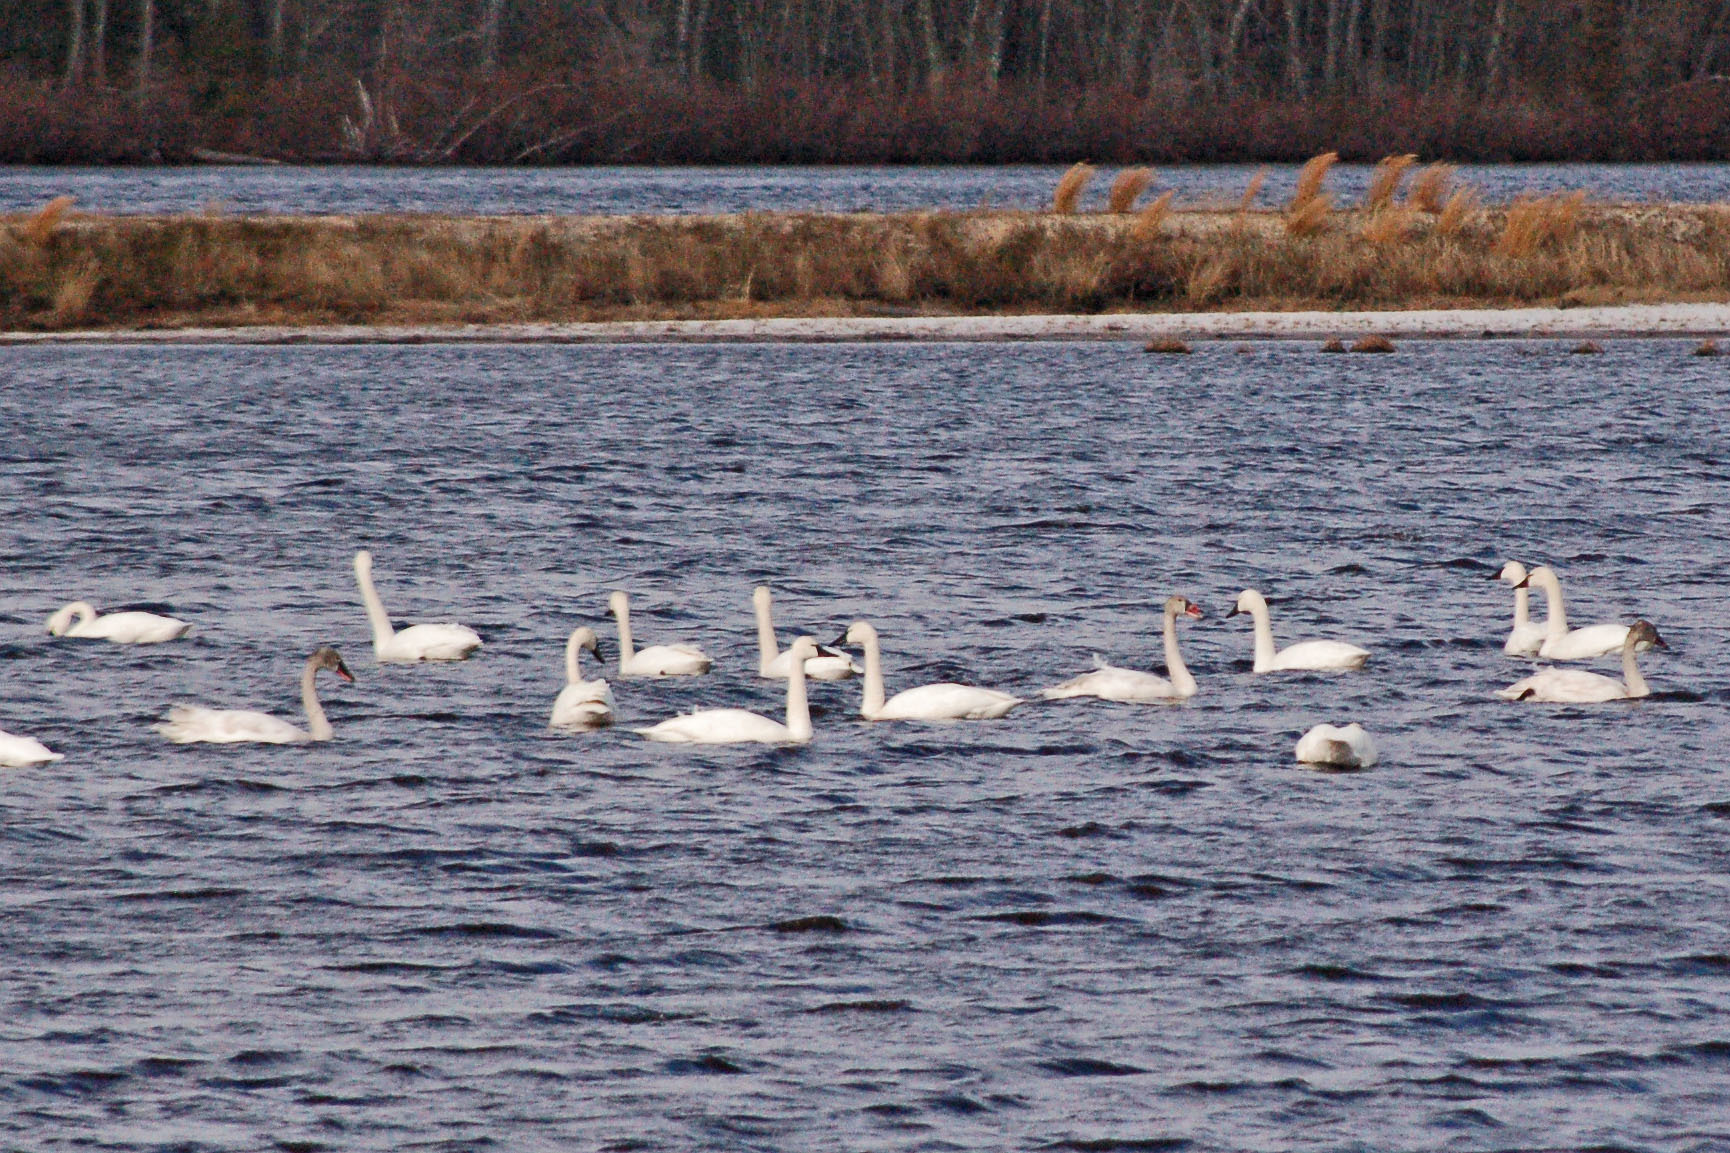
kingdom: Animalia
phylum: Chordata
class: Aves
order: Anseriformes
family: Anatidae
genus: Cygnus
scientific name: Cygnus columbianus
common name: Tundra swan
